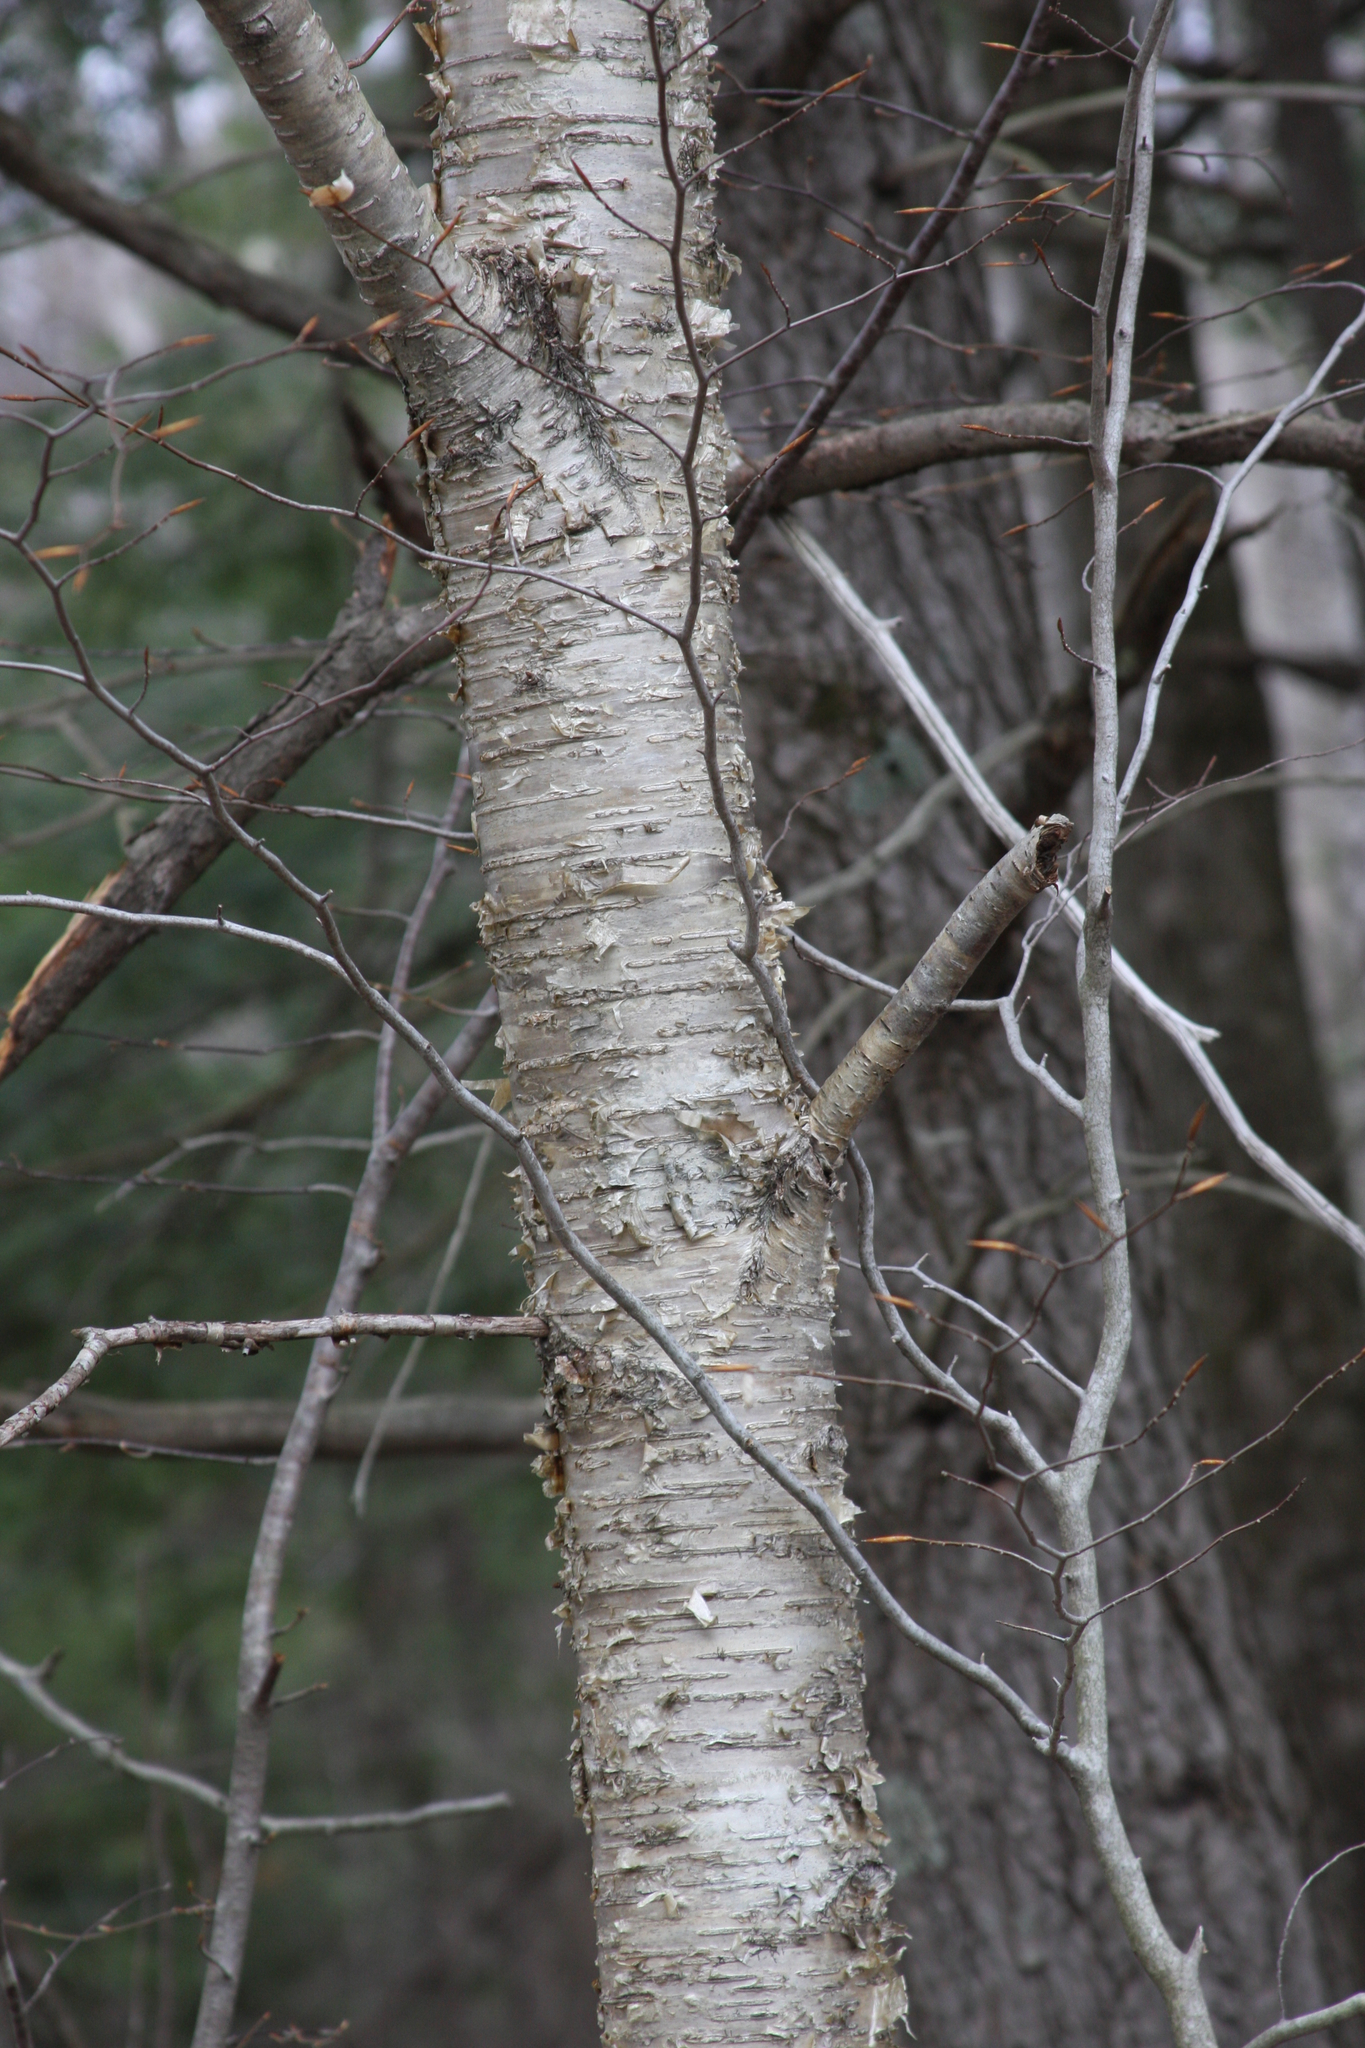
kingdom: Plantae
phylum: Tracheophyta
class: Magnoliopsida
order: Fagales
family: Betulaceae
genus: Betula
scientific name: Betula alleghaniensis
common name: Yellow birch
